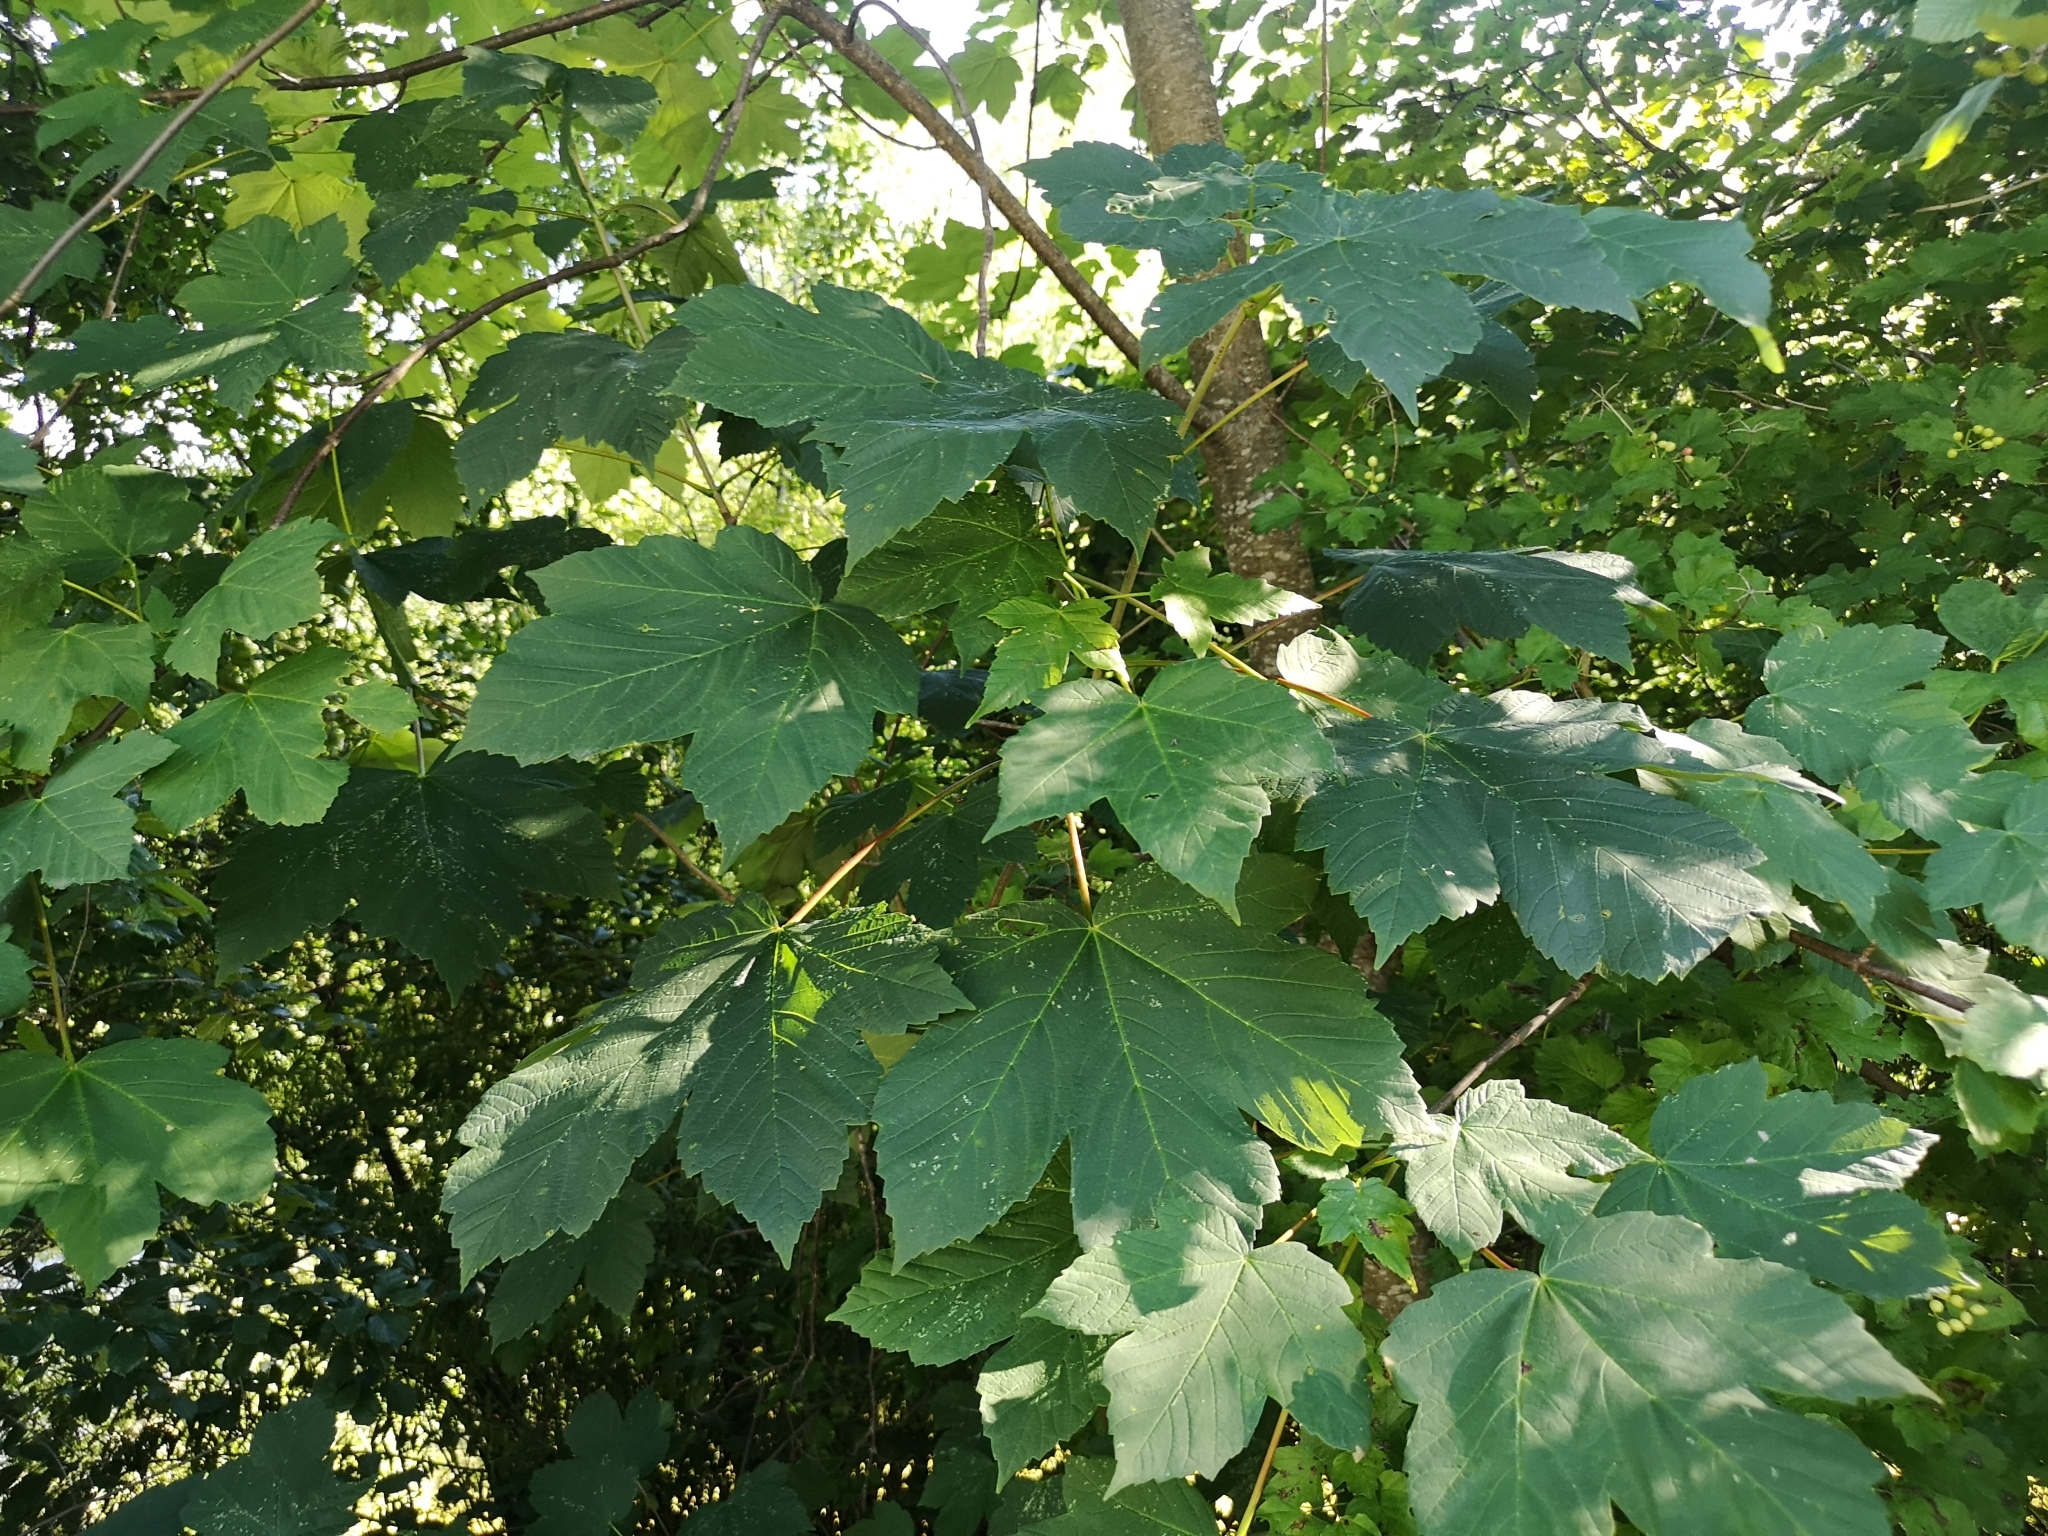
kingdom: Plantae
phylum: Tracheophyta
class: Magnoliopsida
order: Sapindales
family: Sapindaceae
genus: Acer
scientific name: Acer pseudoplatanus
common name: Sycamore
